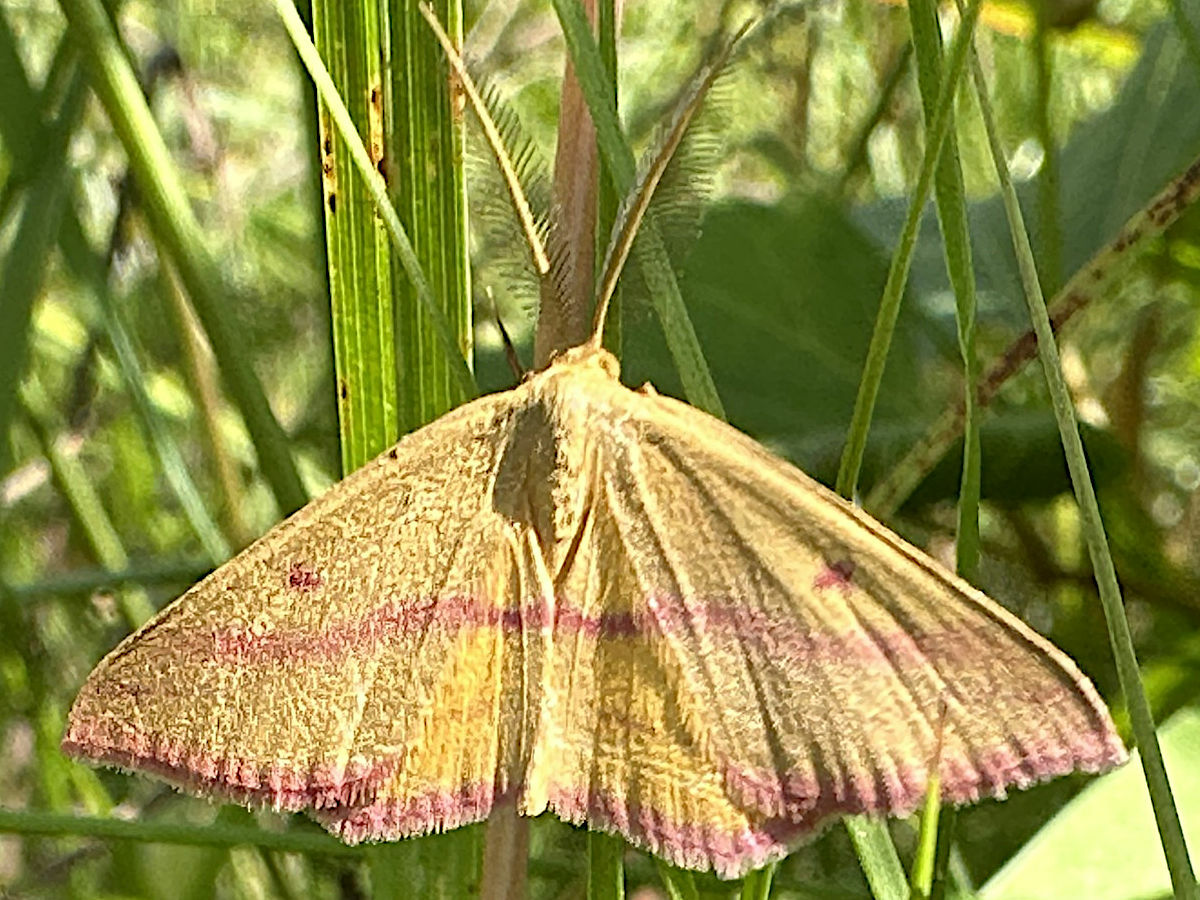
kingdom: Animalia
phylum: Arthropoda
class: Insecta
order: Lepidoptera
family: Geometridae
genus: Haematopis
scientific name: Haematopis grataria
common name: Chickweed geometer
